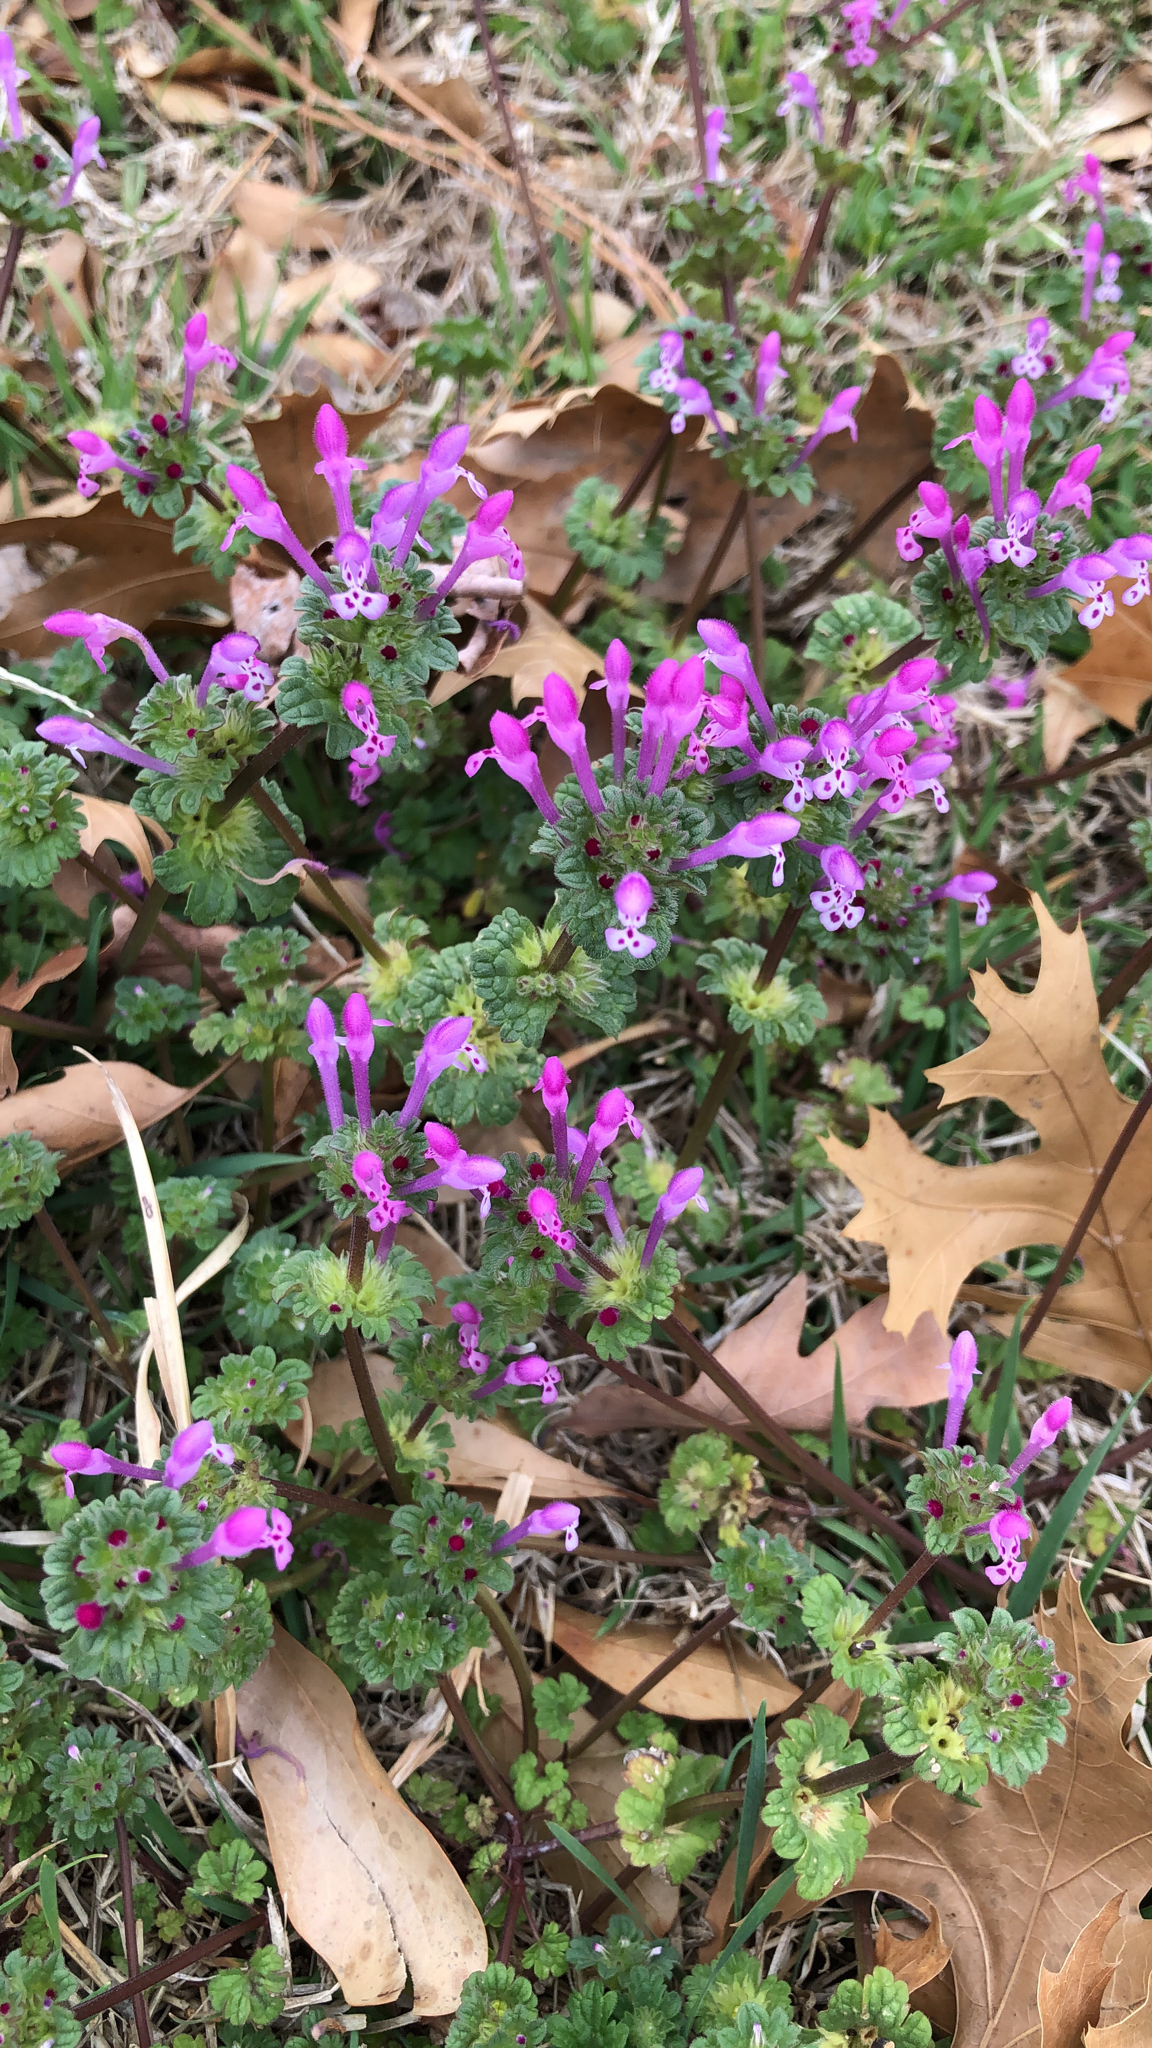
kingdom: Plantae
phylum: Tracheophyta
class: Magnoliopsida
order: Lamiales
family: Lamiaceae
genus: Lamium
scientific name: Lamium amplexicaule
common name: Henbit dead-nettle
